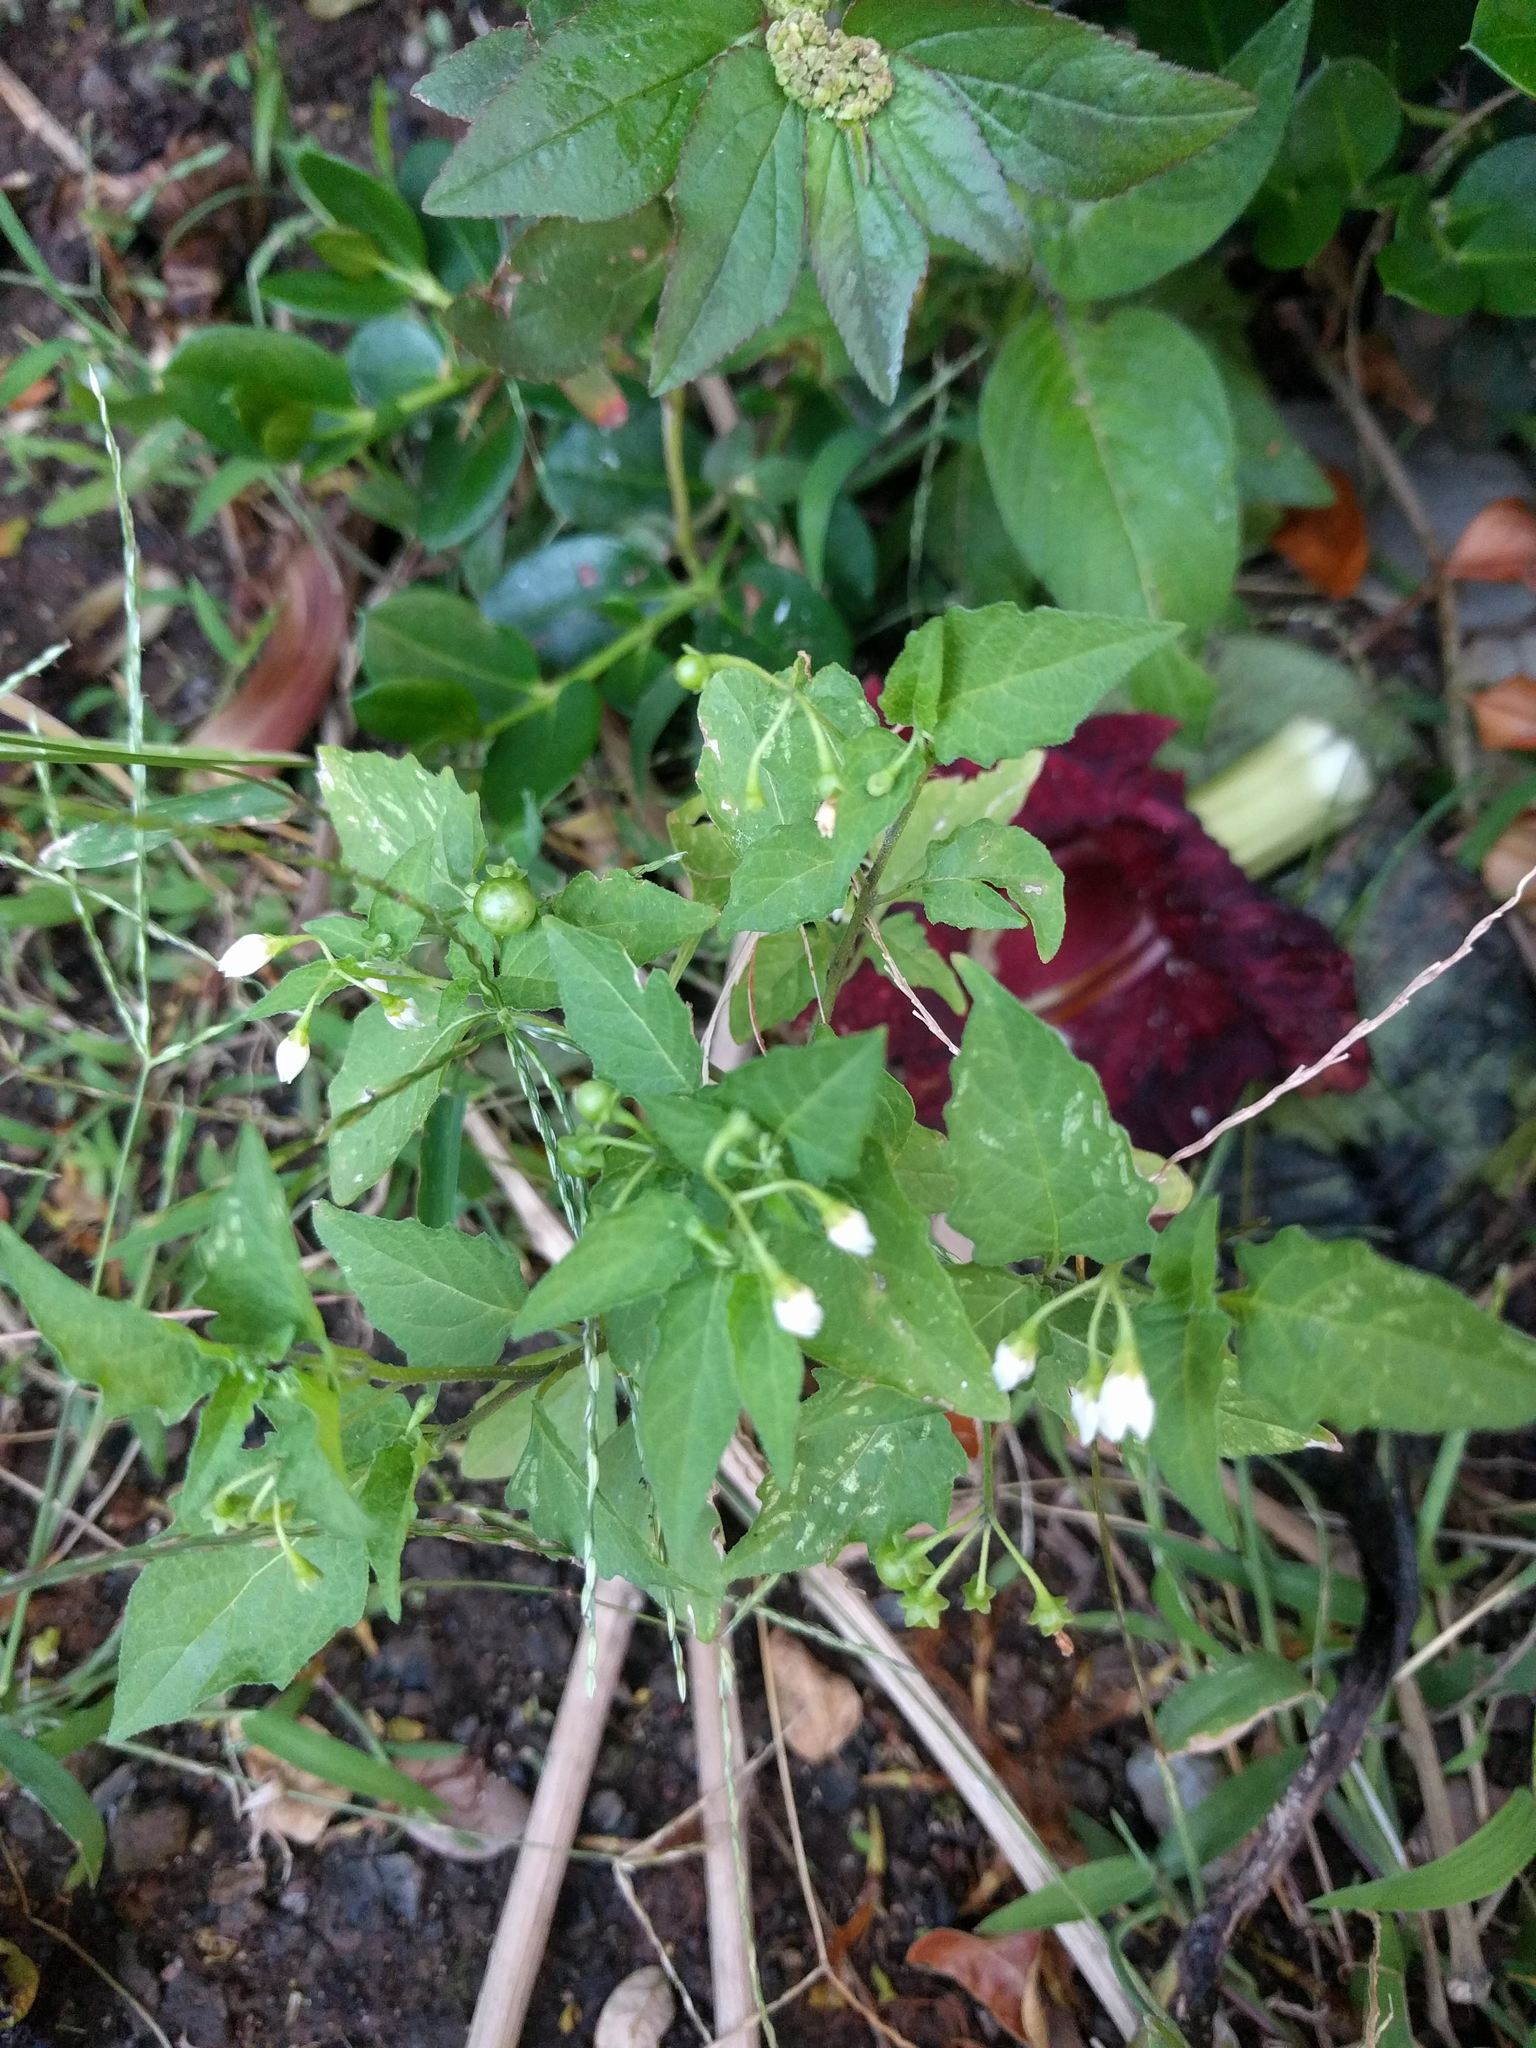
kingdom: Plantae
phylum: Tracheophyta
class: Magnoliopsida
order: Solanales
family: Solanaceae
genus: Solanum
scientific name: Solanum americanum
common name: American black nightshade
